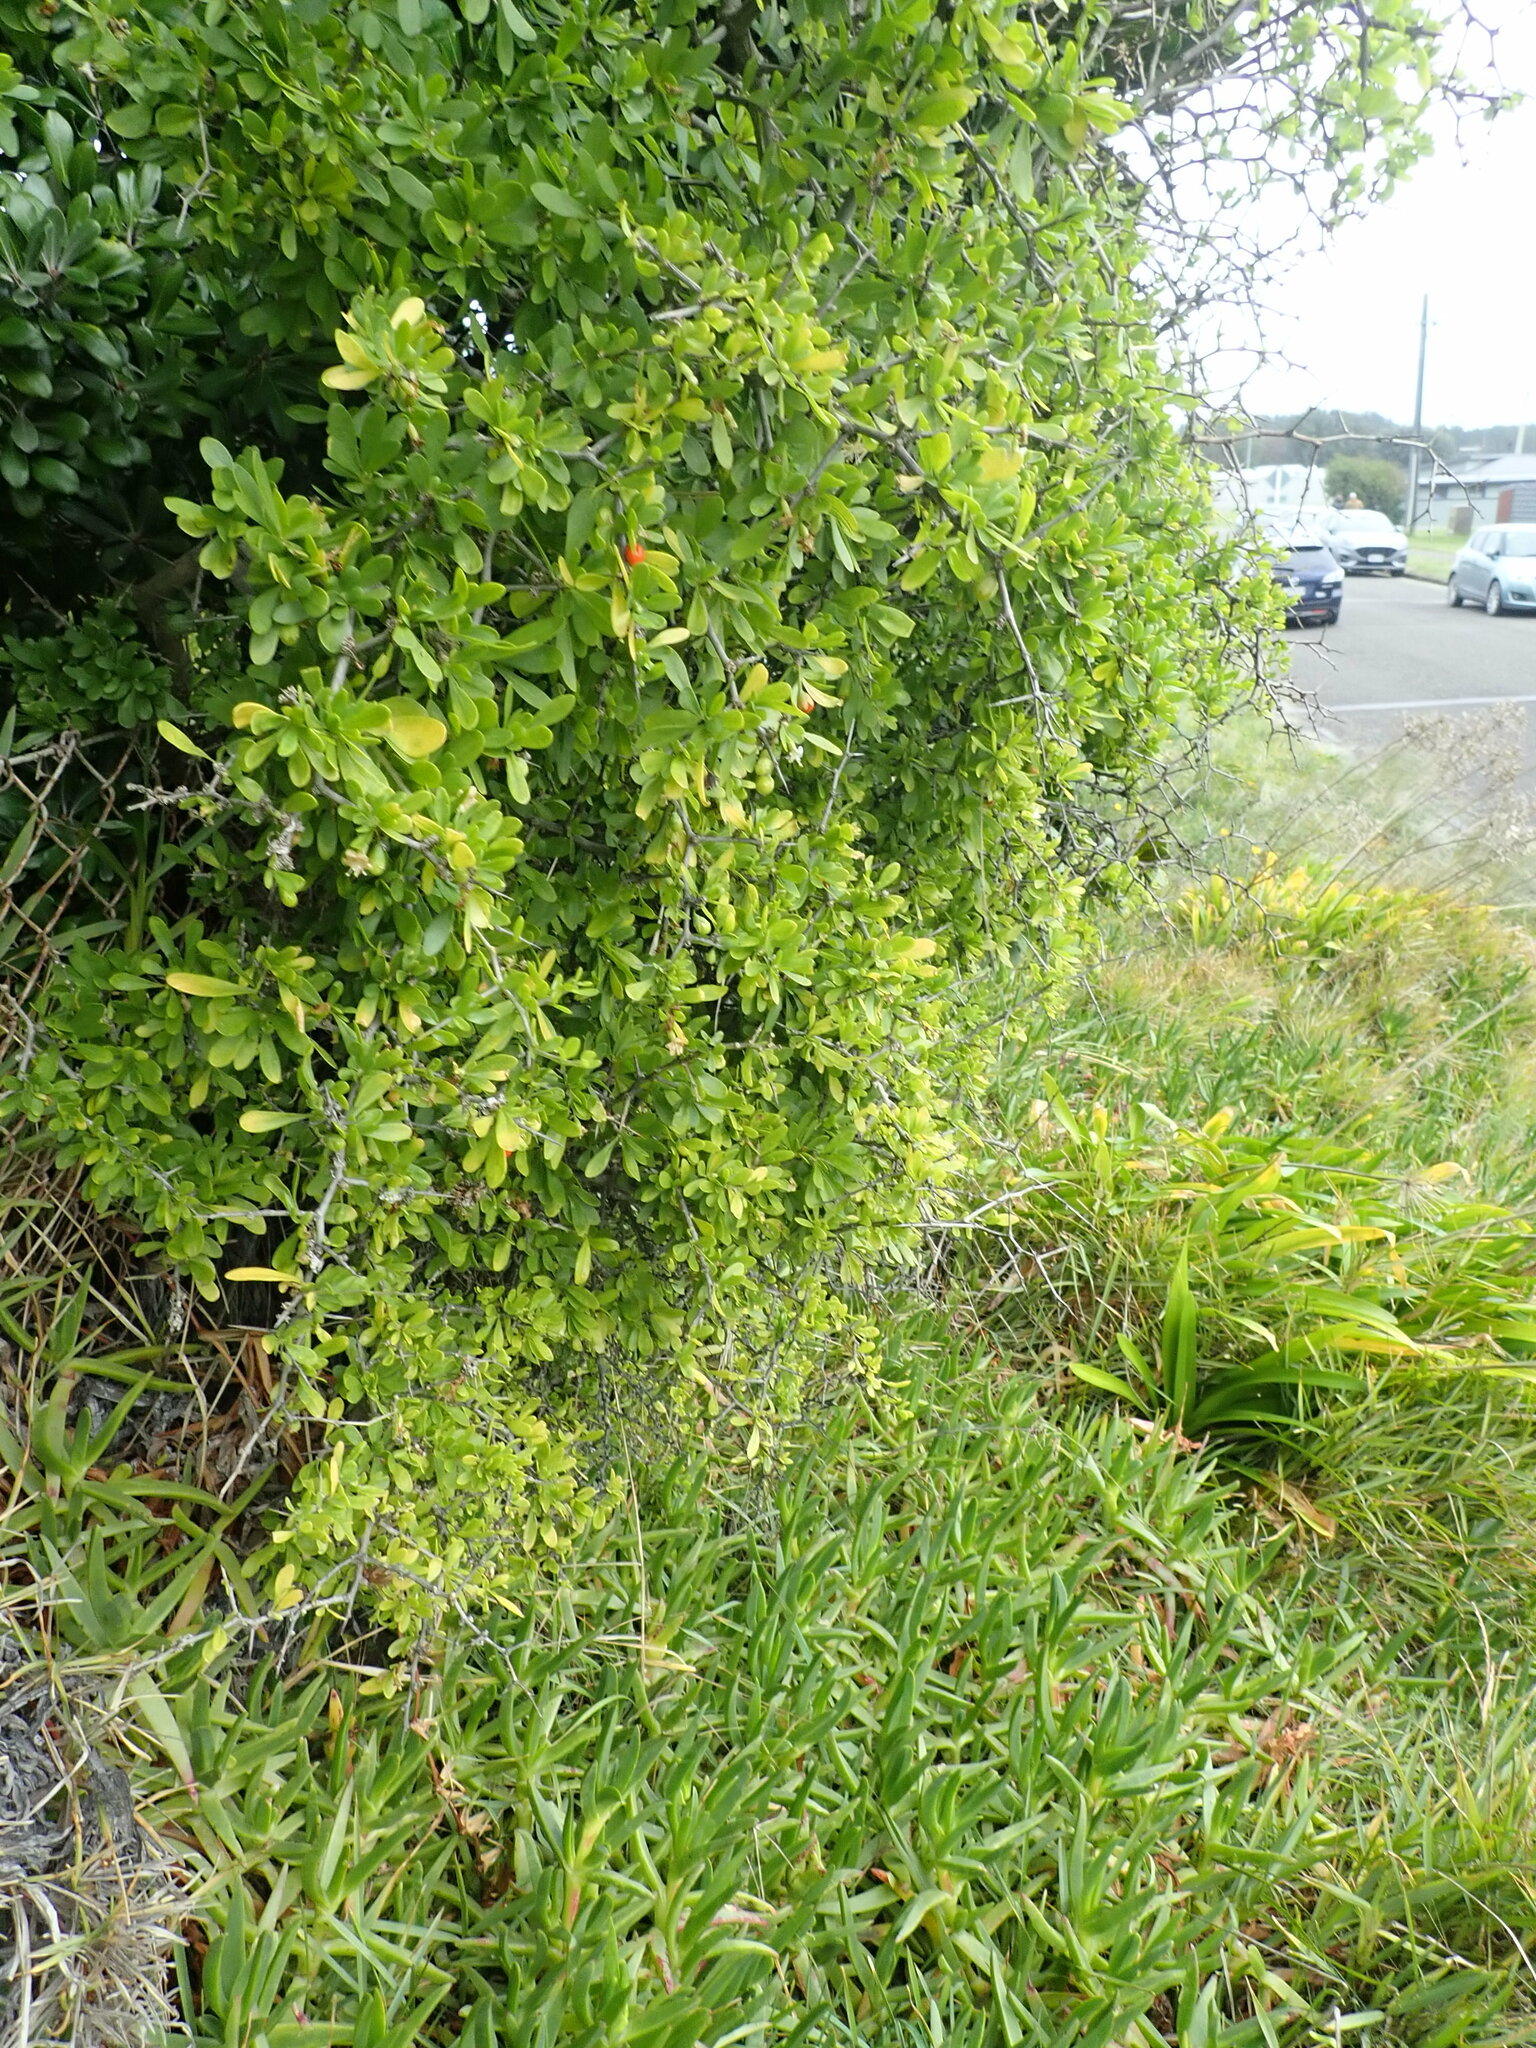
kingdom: Plantae
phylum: Tracheophyta
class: Magnoliopsida
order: Solanales
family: Solanaceae
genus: Lycium
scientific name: Lycium ferocissimum
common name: African boxthorn
